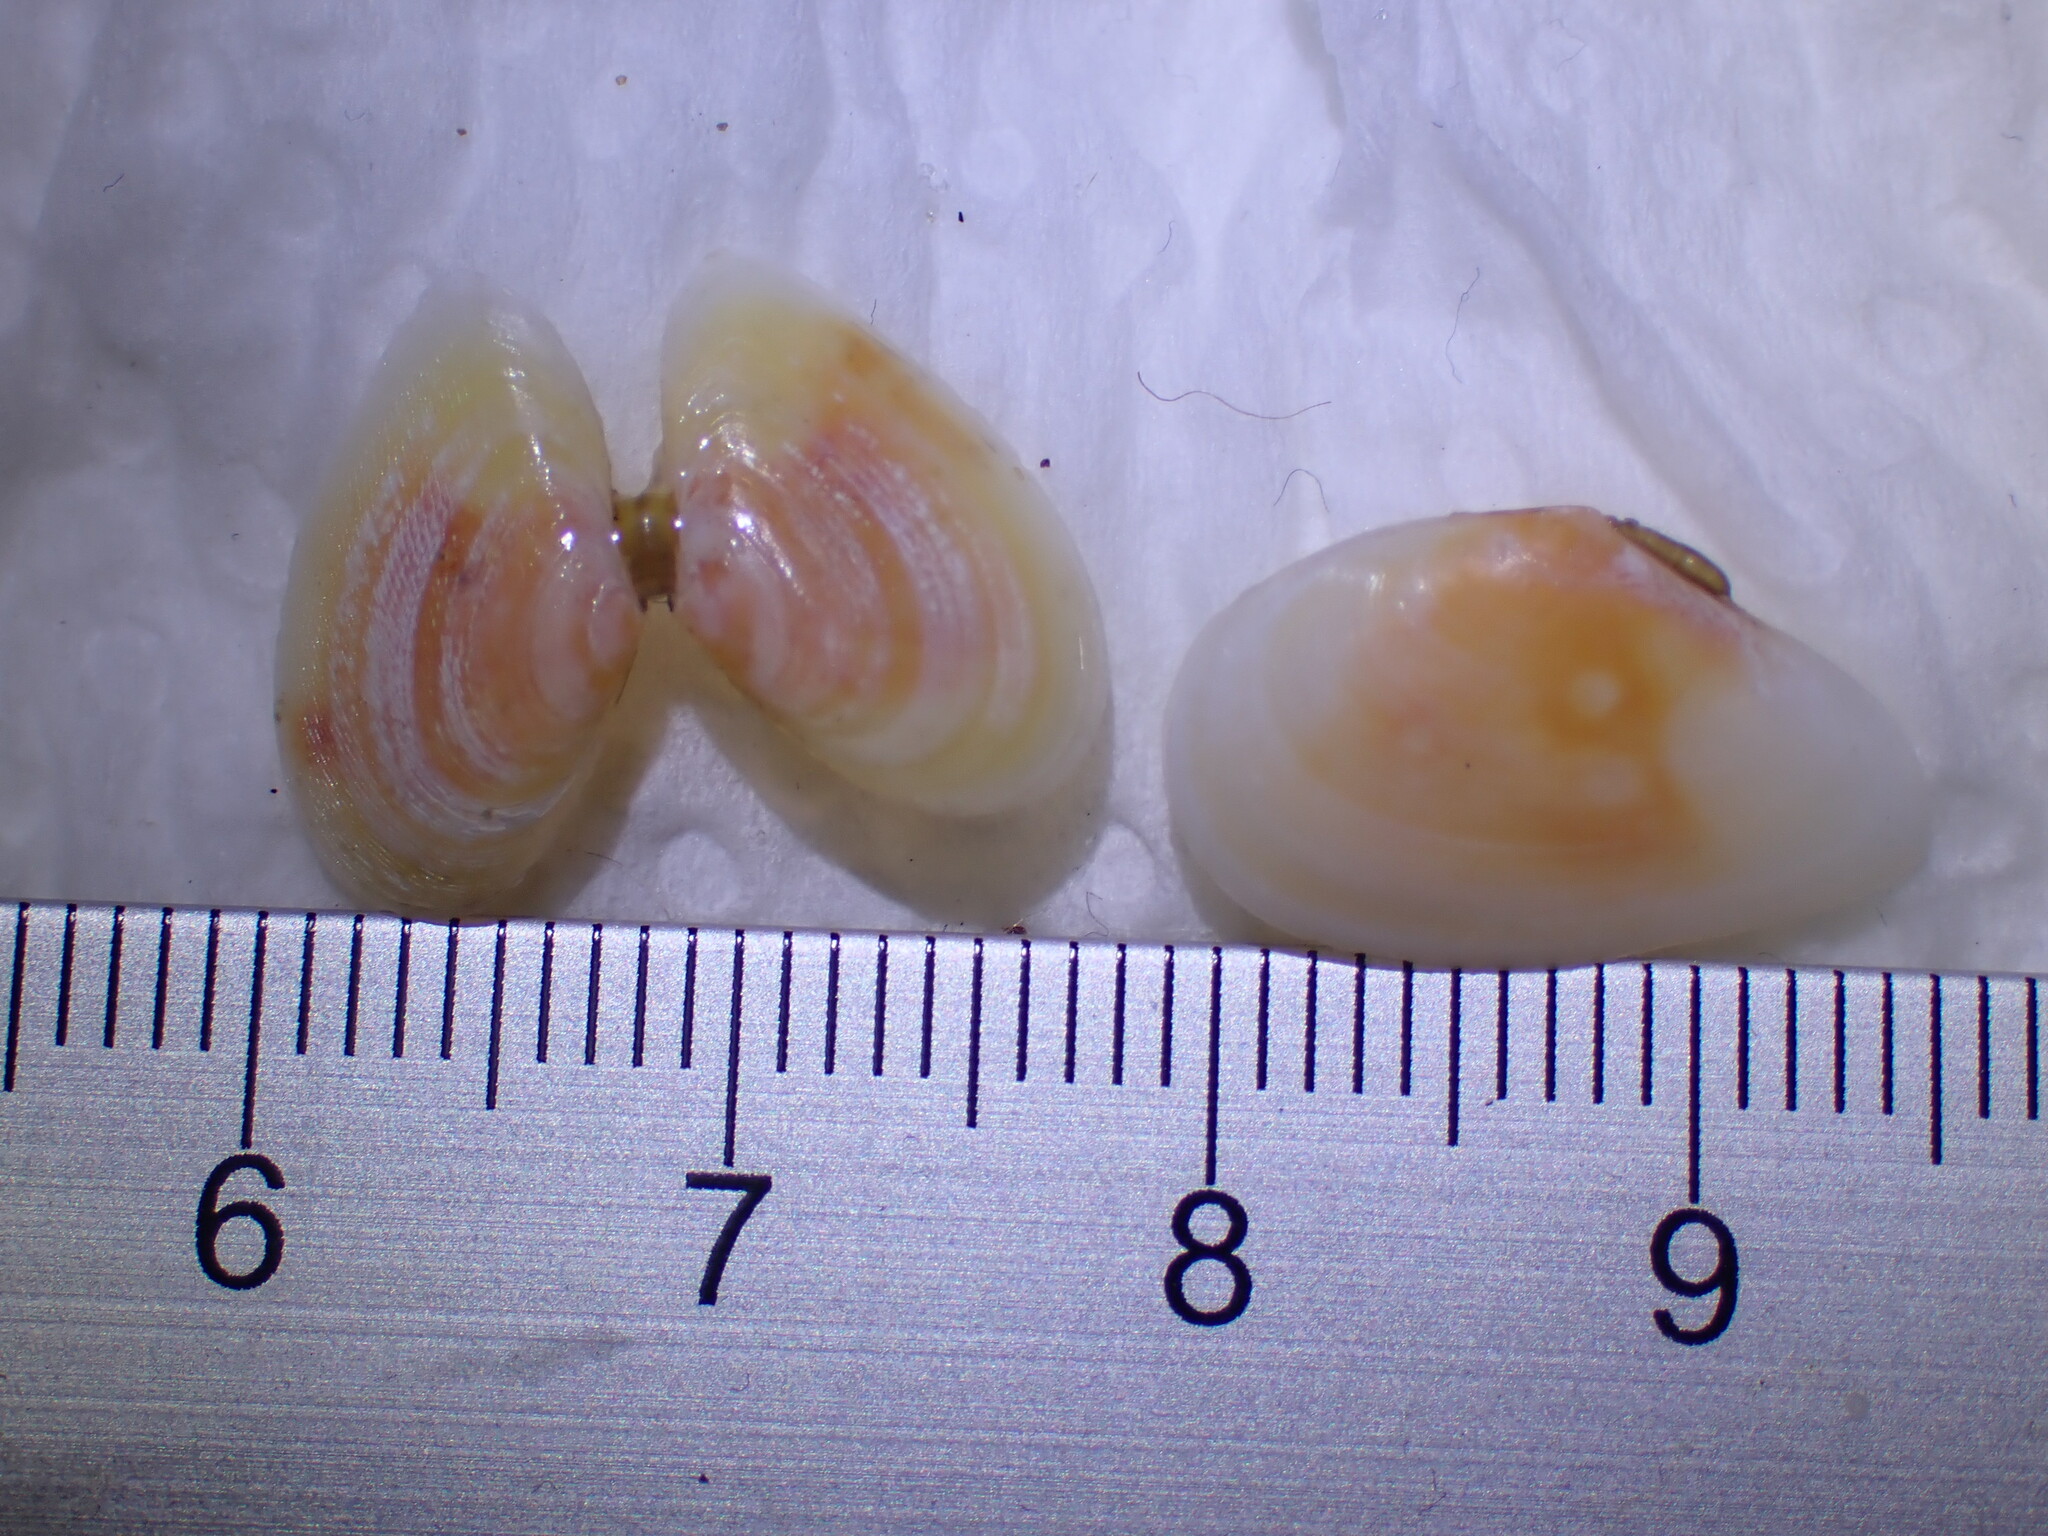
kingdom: Animalia
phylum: Mollusca
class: Bivalvia
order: Cardiida
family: Tellinidae
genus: Fabulina
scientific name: Fabulina fabula
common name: Bean-like tellin
